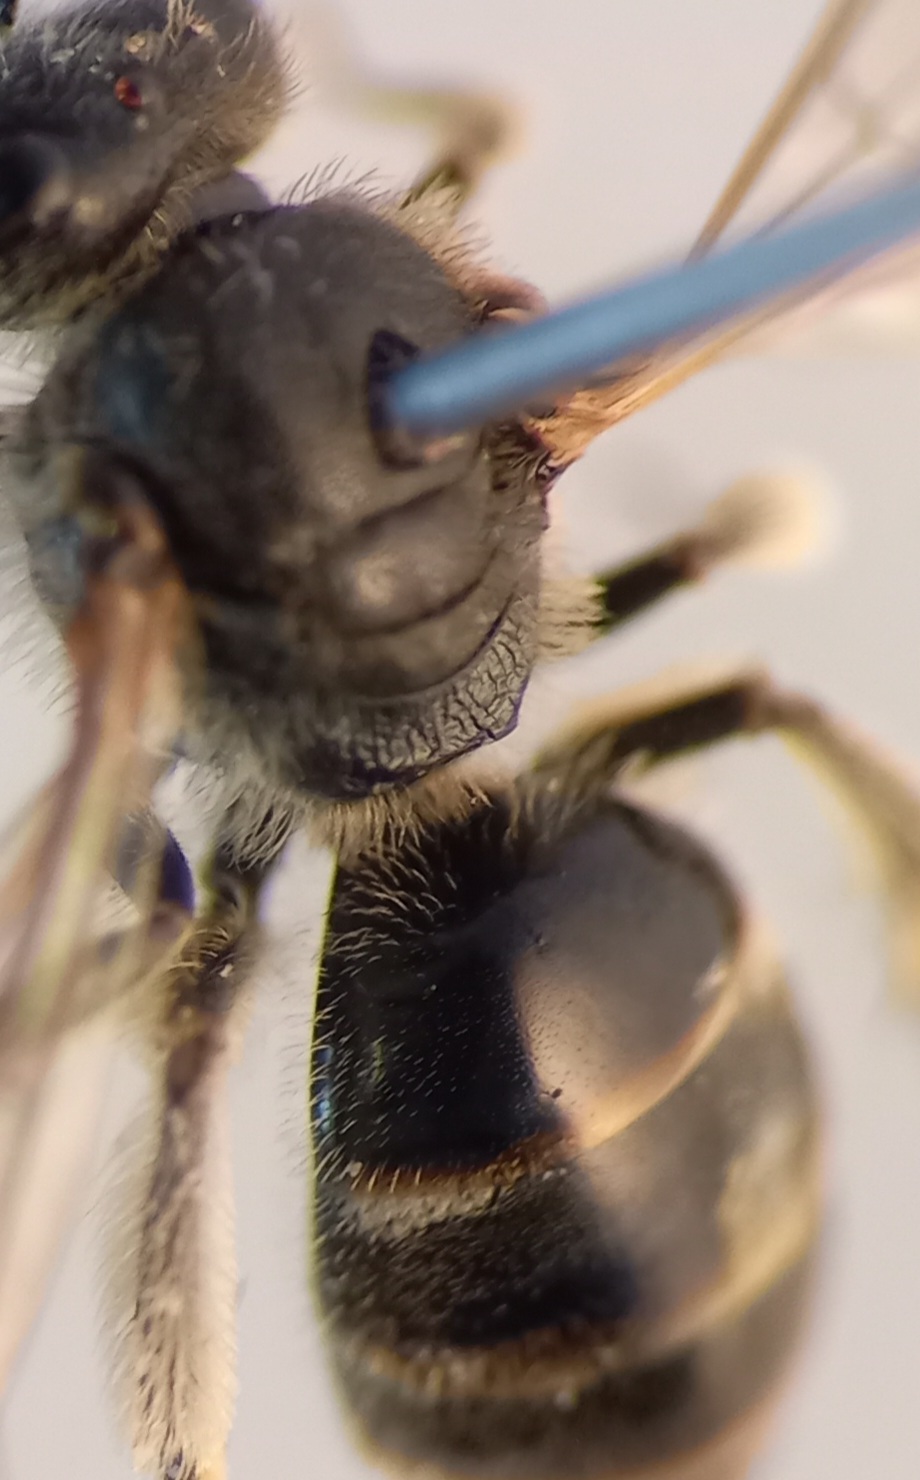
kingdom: Animalia
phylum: Arthropoda
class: Insecta
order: Hymenoptera
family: Halictidae
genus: Lasioglossum
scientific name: Lasioglossum laticeps
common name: Broad-faced furrow bee
